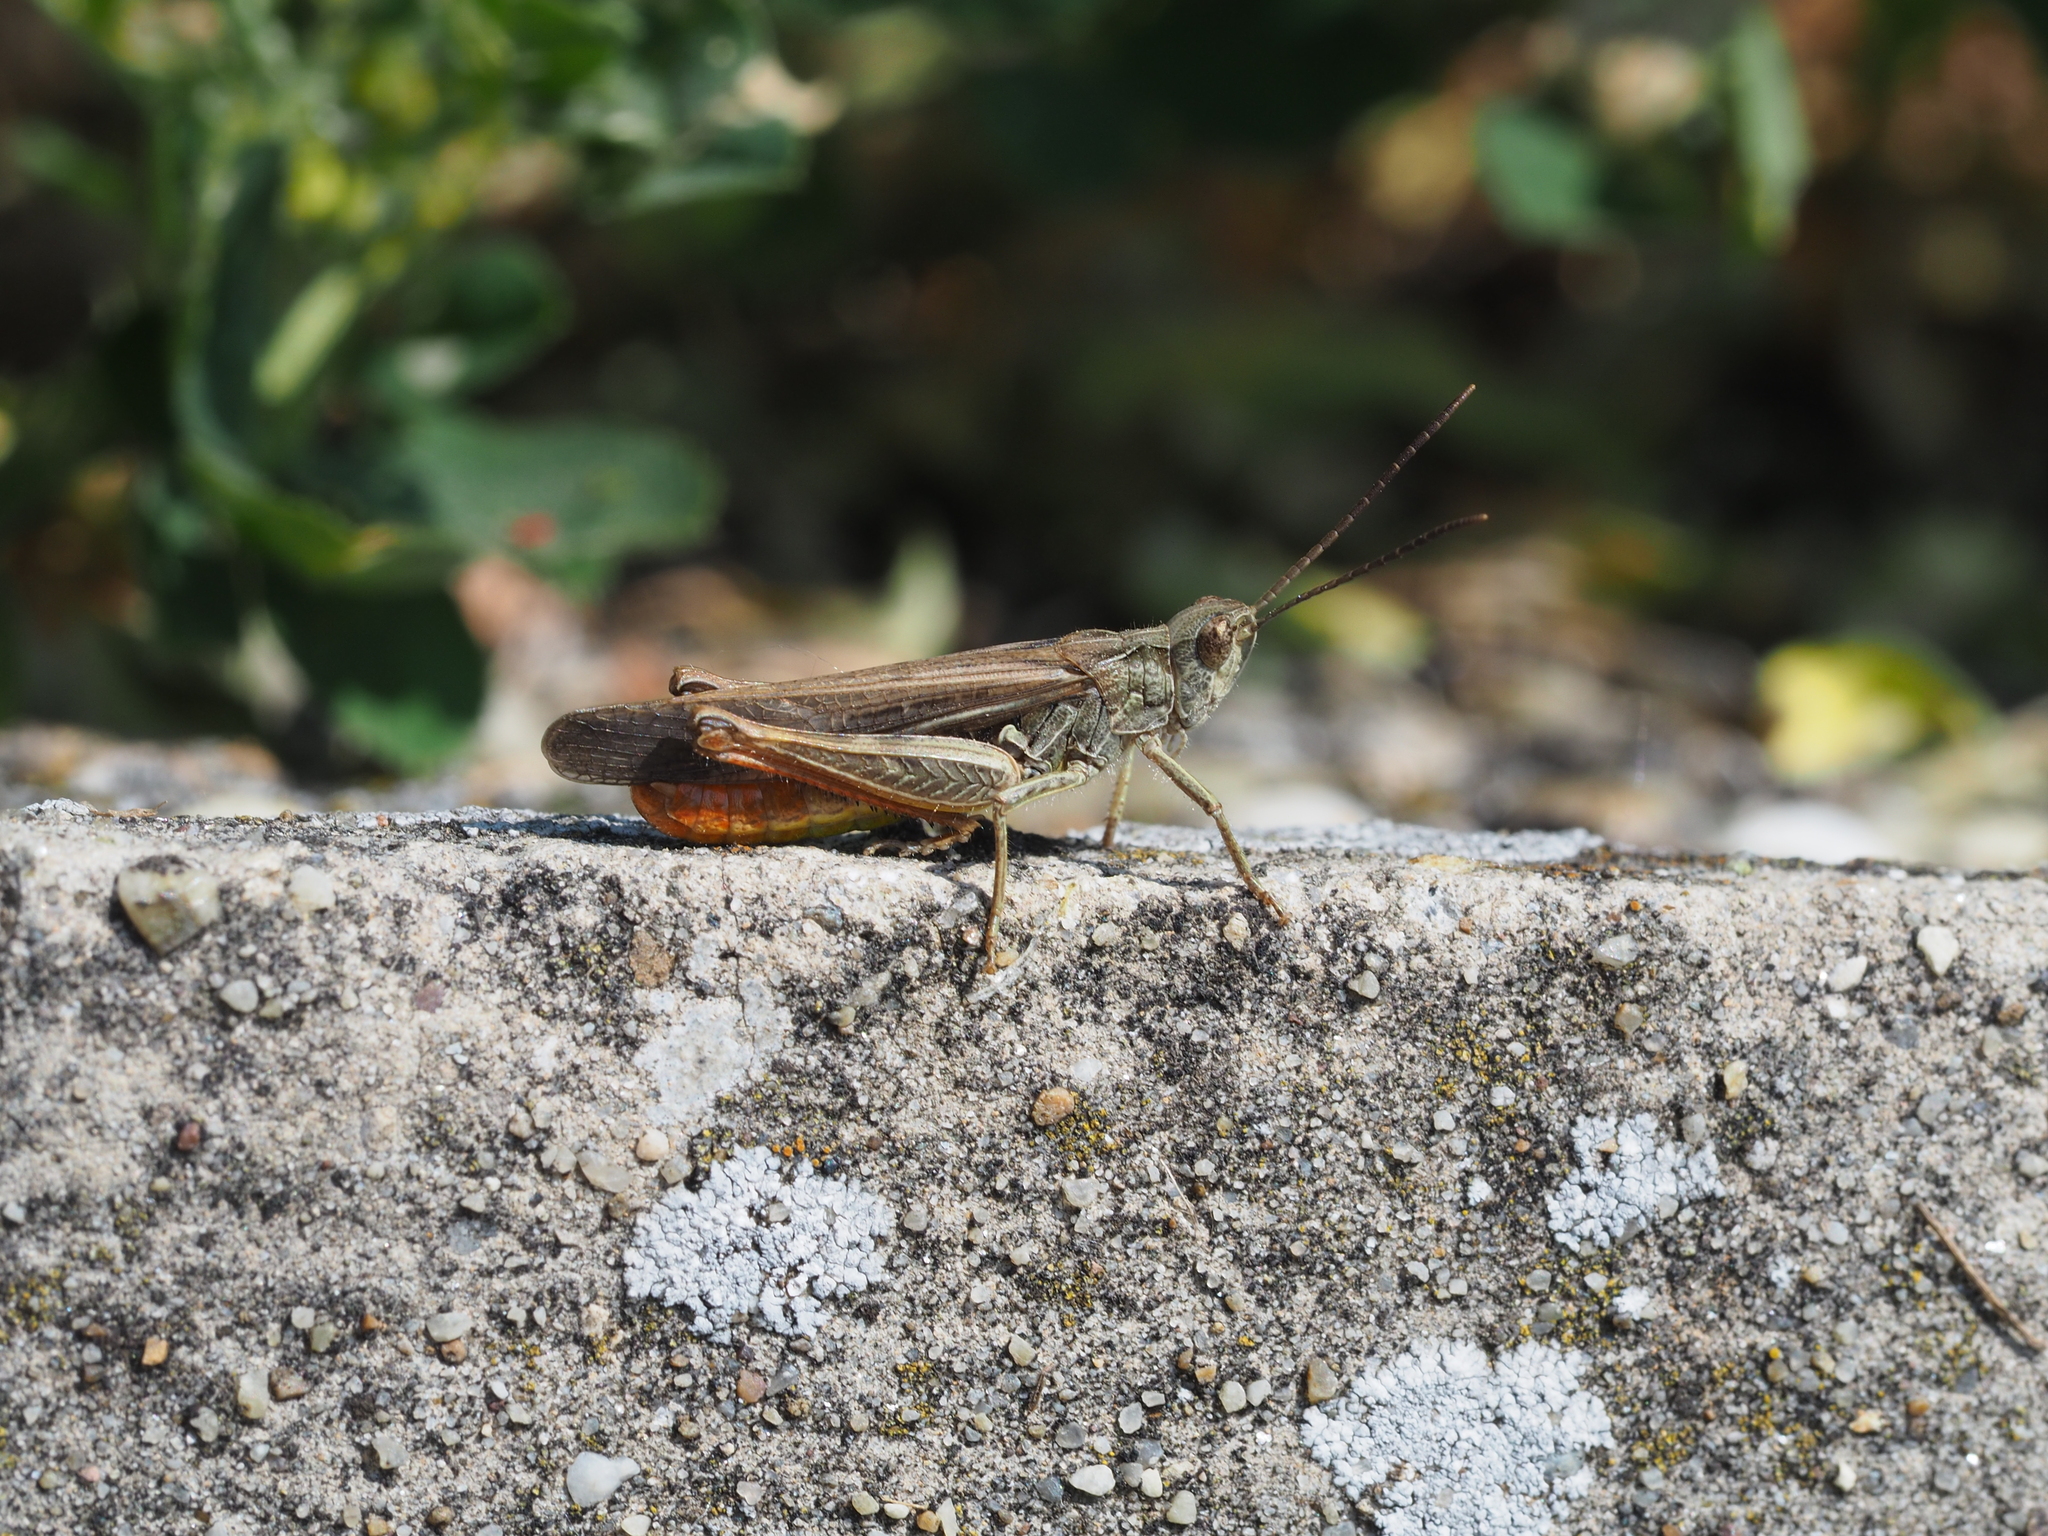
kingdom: Animalia
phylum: Arthropoda
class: Insecta
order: Orthoptera
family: Acrididae
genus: Chorthippus
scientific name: Chorthippus brunneus
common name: Field grasshopper
